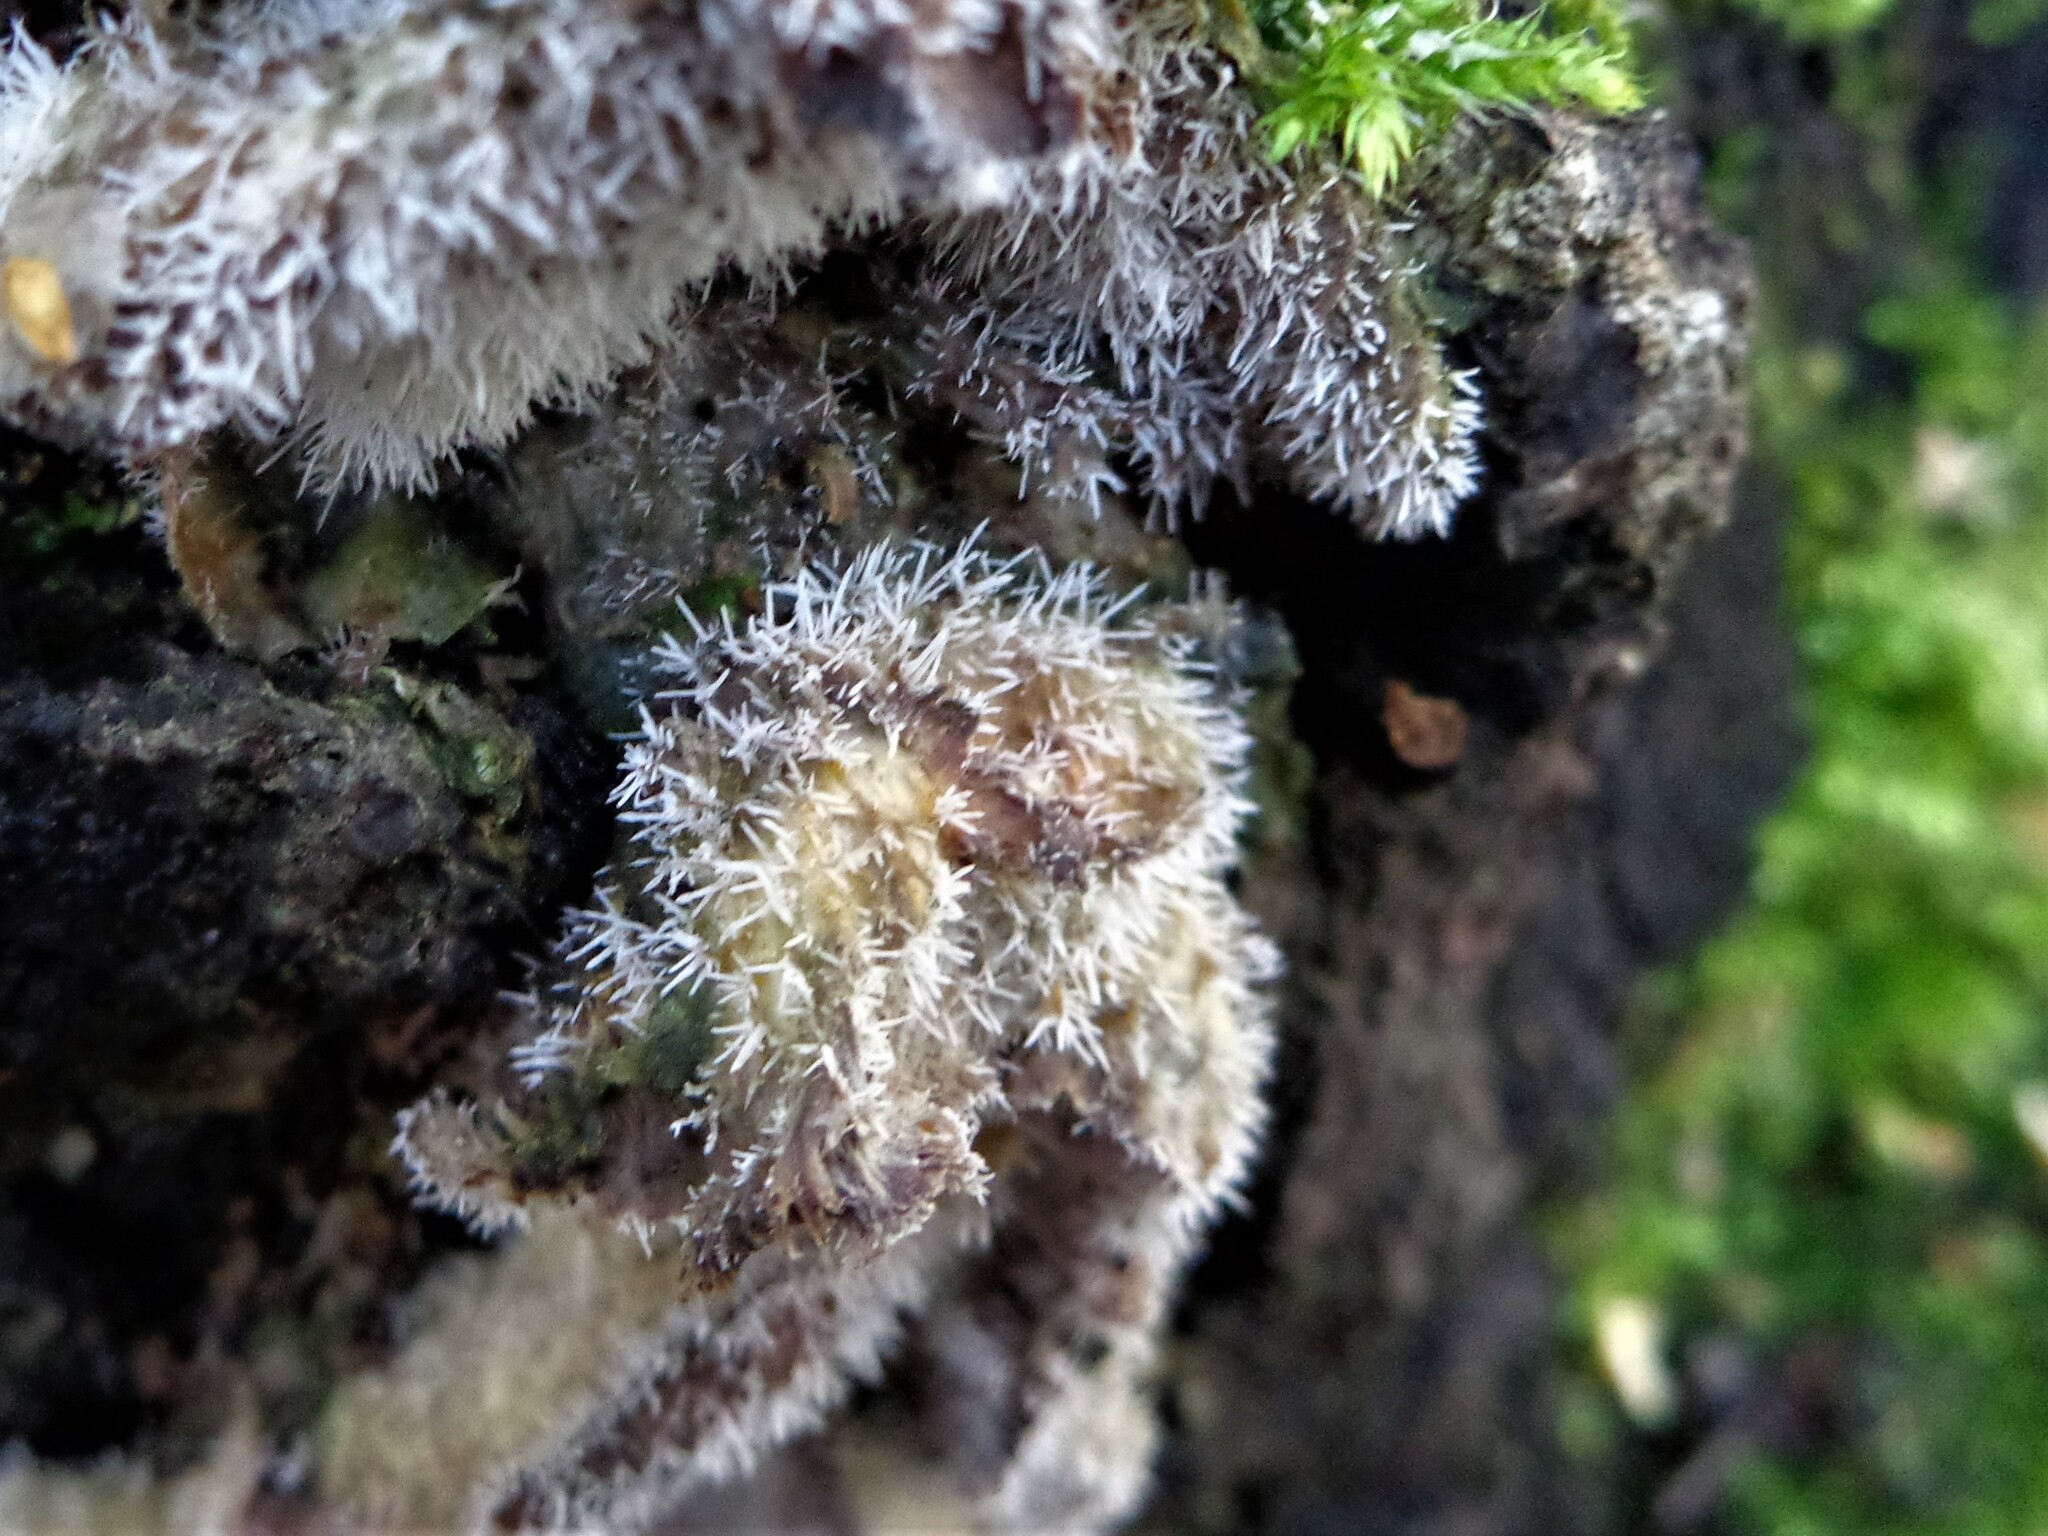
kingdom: Fungi
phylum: Ascomycota
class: Sordariomycetes
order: Hypocreales
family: Tilachlidiaceae
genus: Tilachlidium
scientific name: Tilachlidium brachiatum
